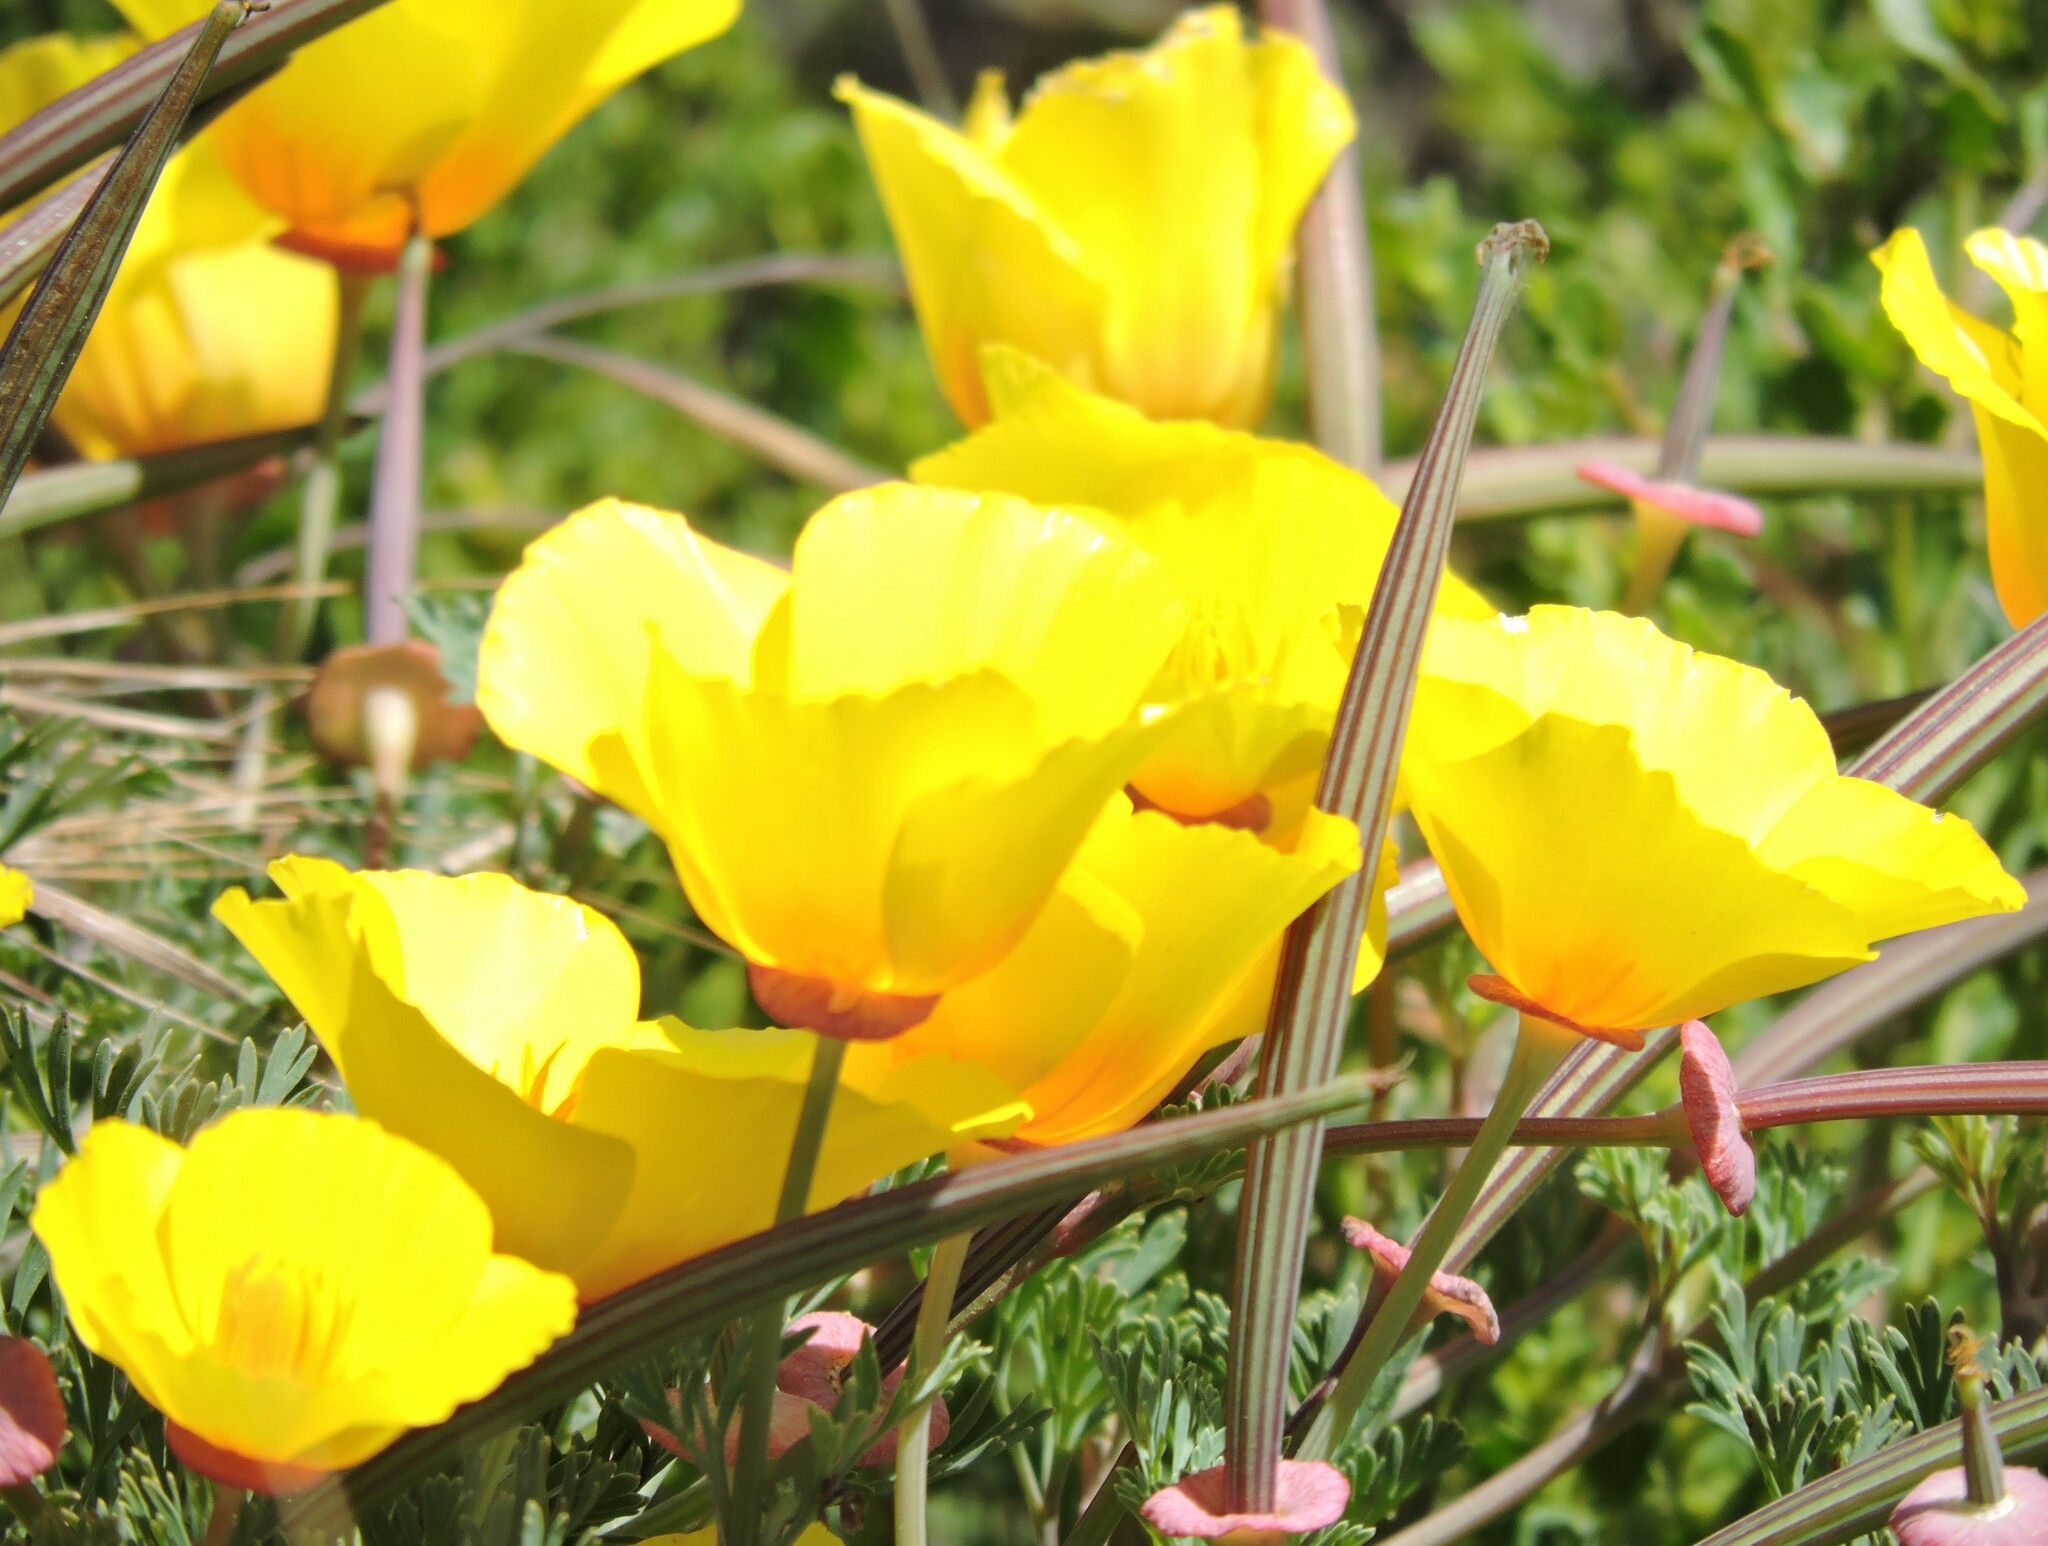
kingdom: Plantae
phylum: Tracheophyta
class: Magnoliopsida
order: Ranunculales
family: Papaveraceae
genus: Eschscholzia
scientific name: Eschscholzia californica
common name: California poppy
